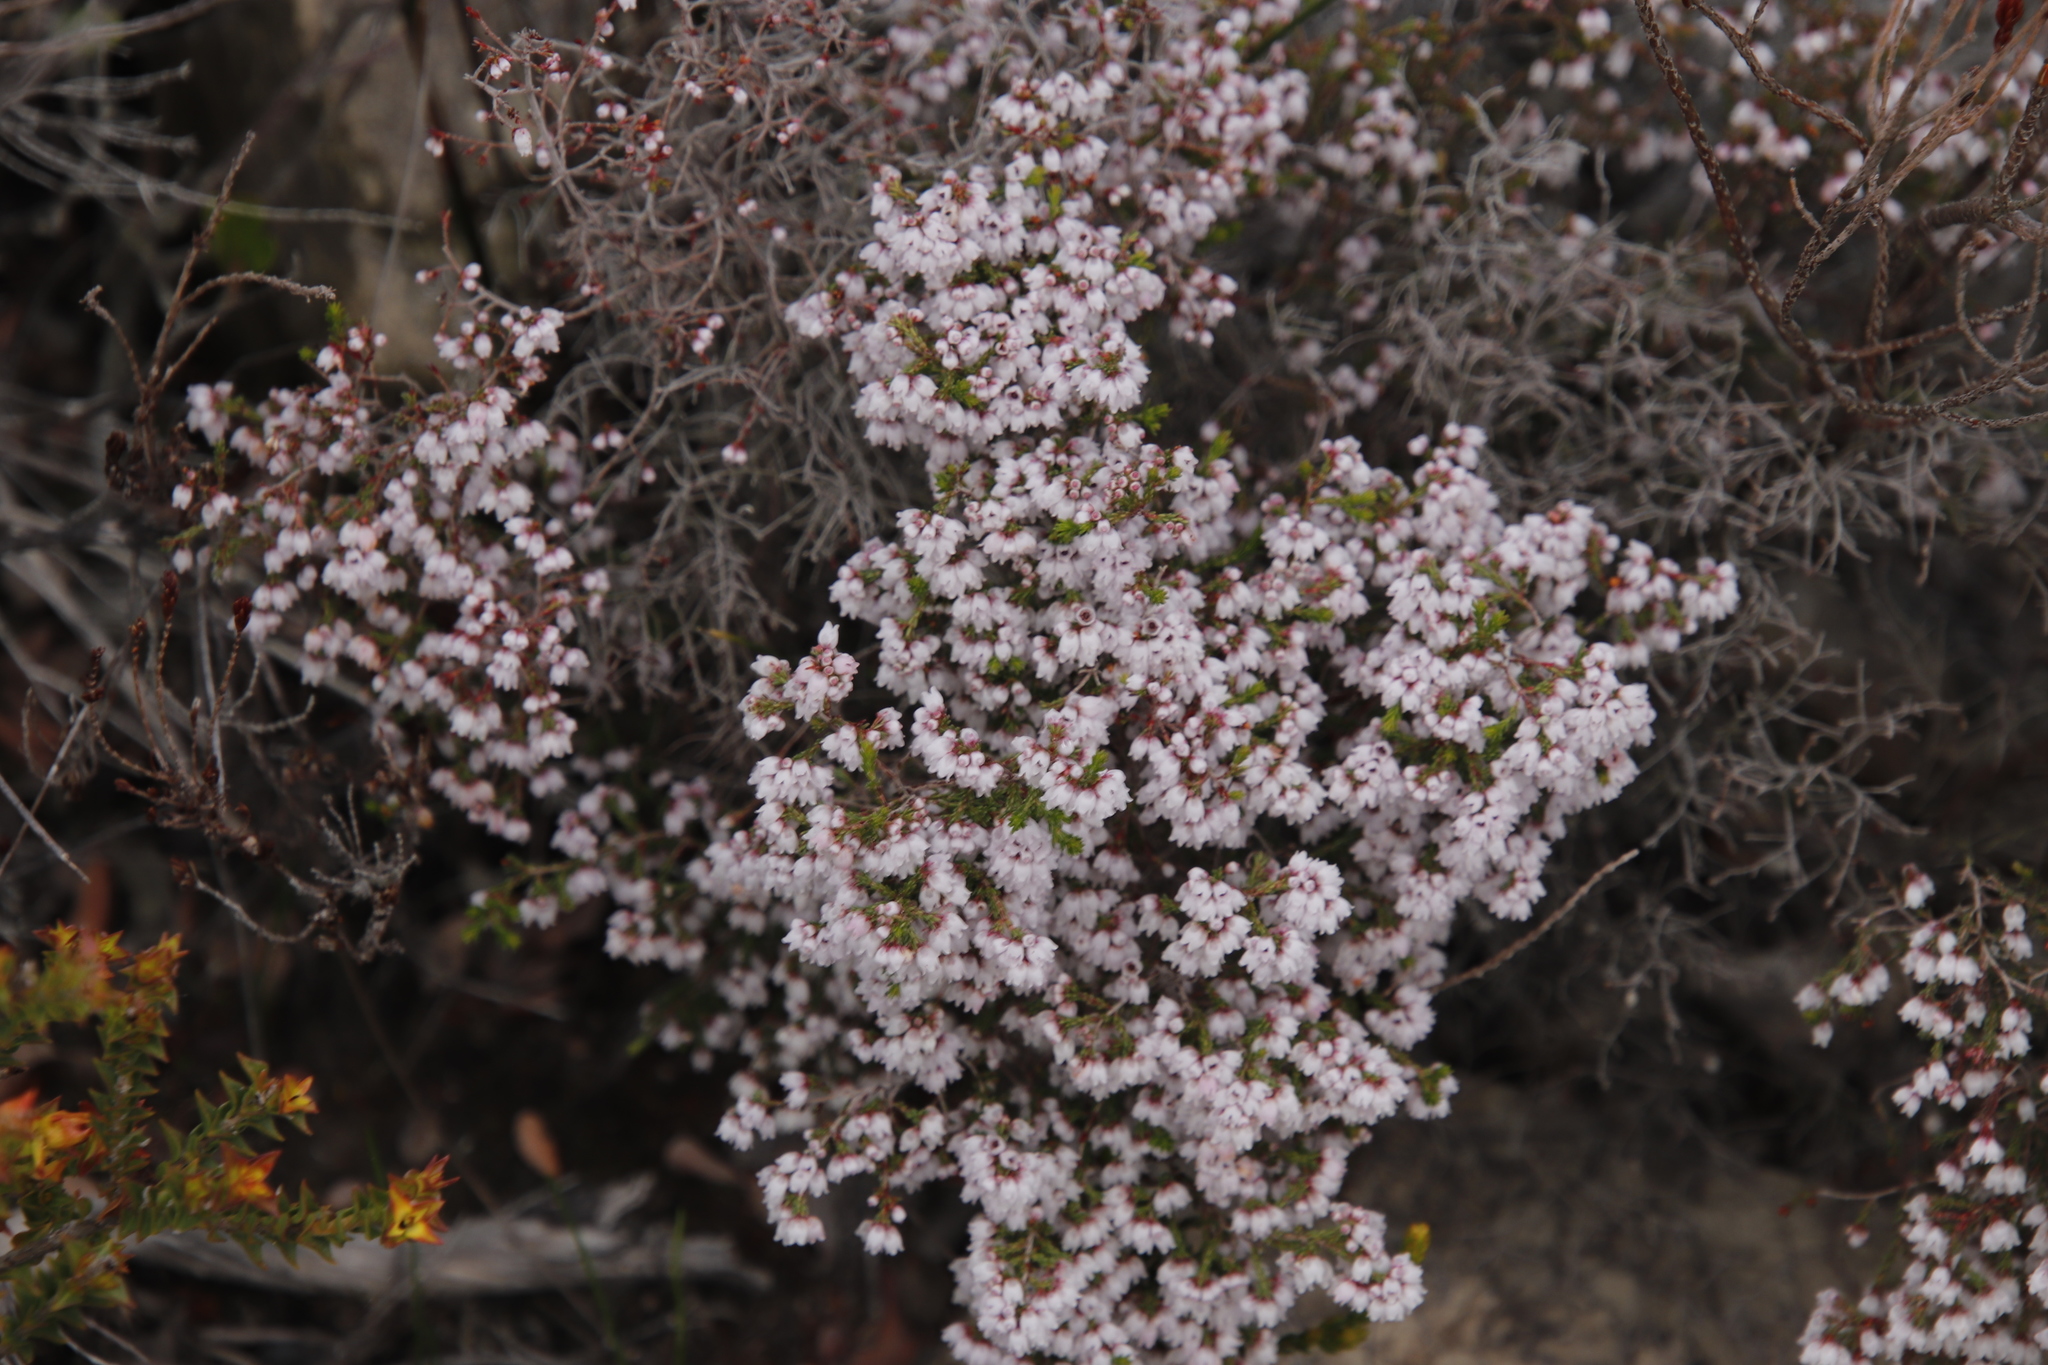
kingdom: Plantae
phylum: Tracheophyta
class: Magnoliopsida
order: Ericales
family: Ericaceae
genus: Erica
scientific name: Erica quadrangularis
